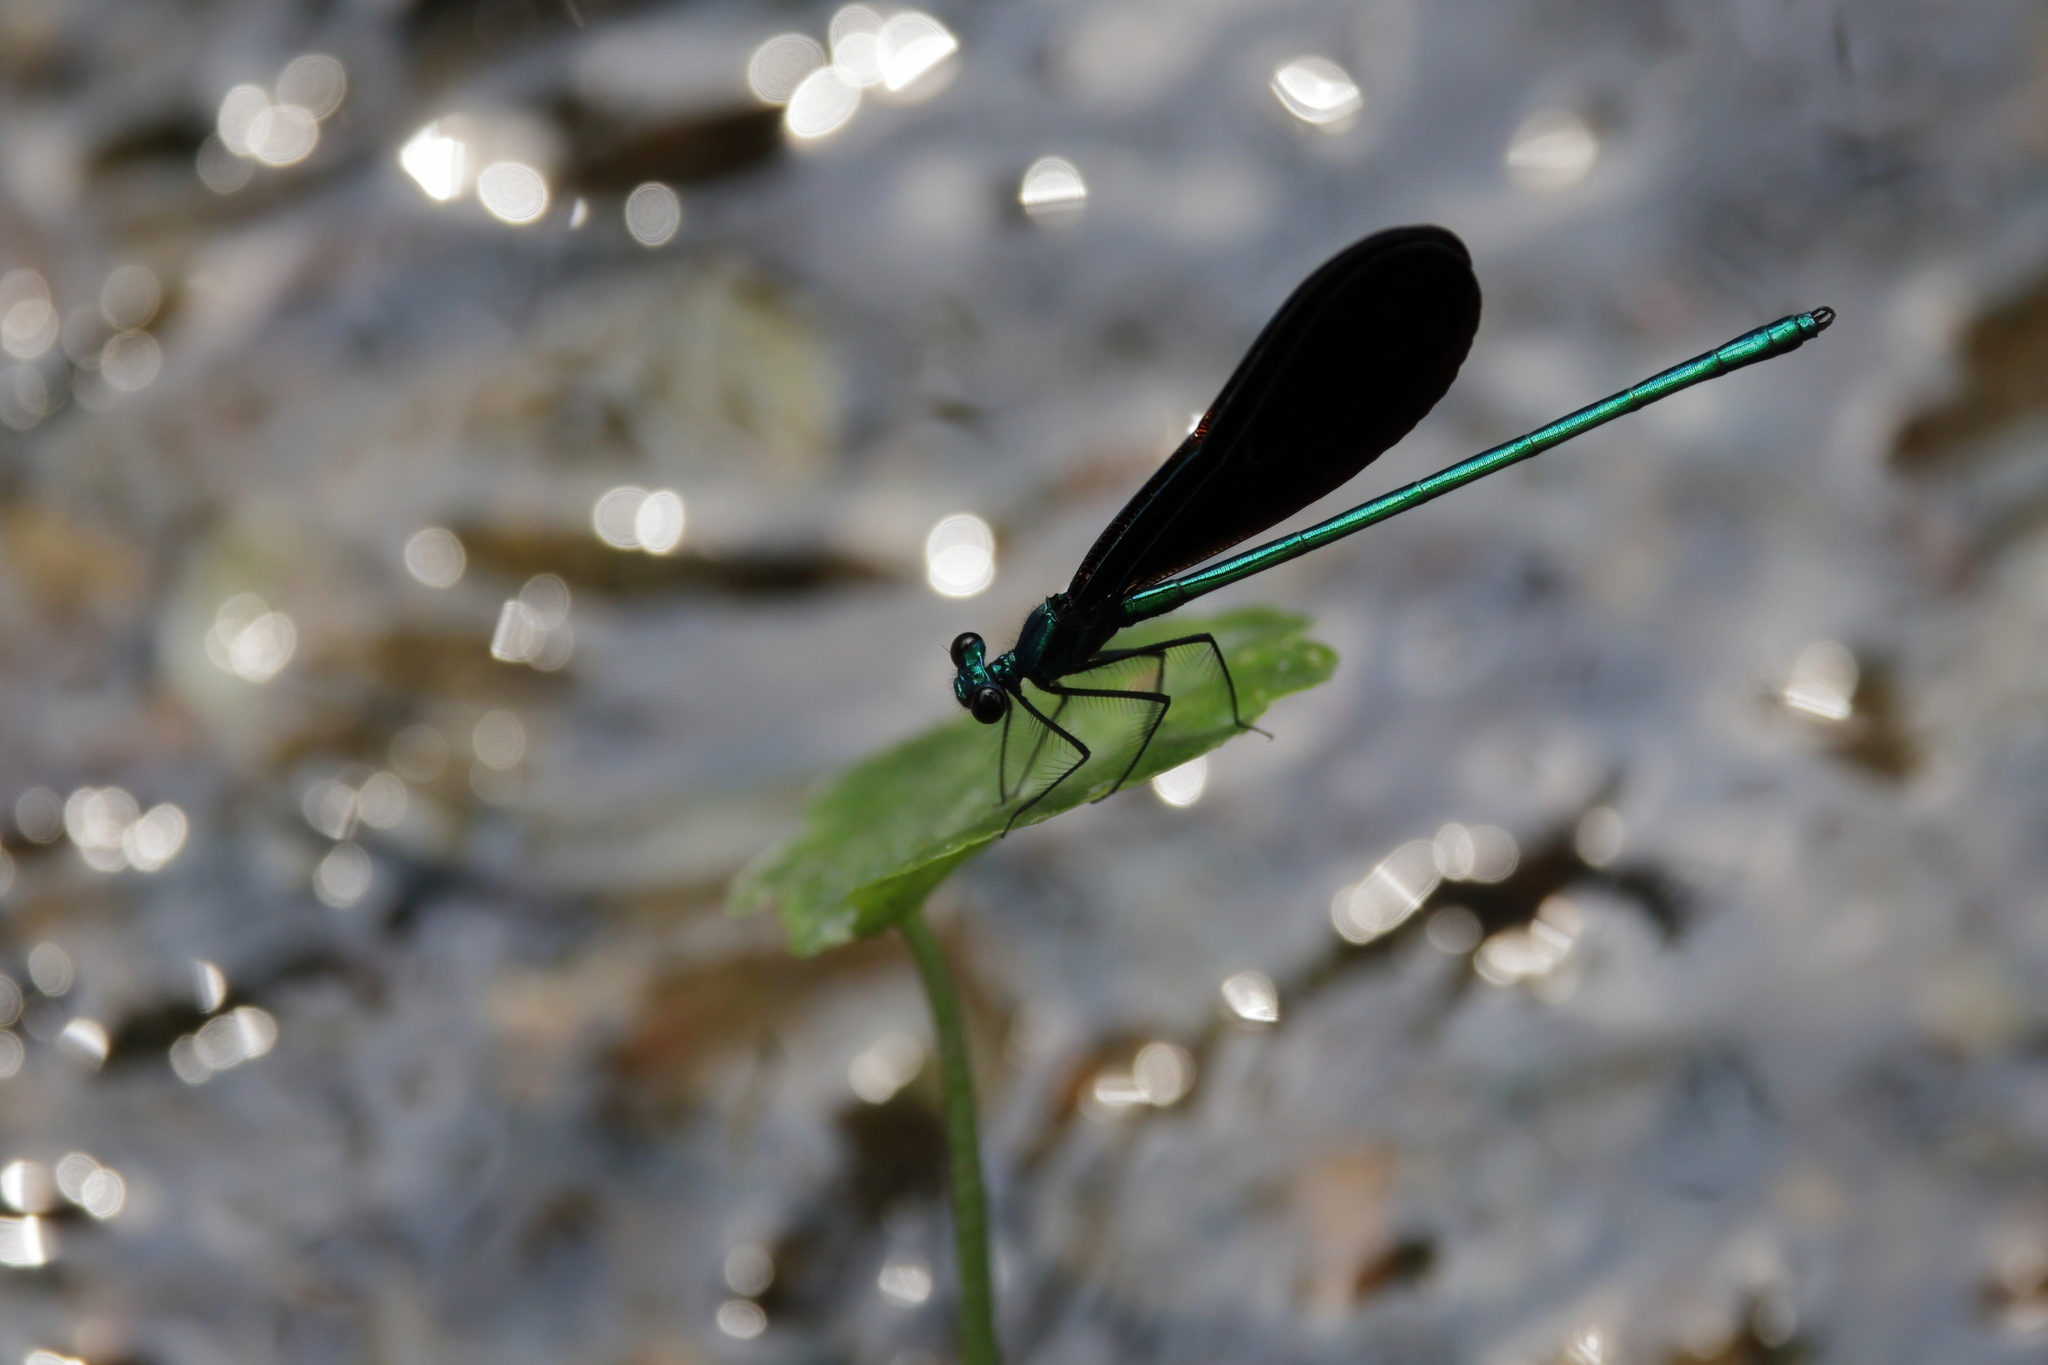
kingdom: Animalia
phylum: Arthropoda
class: Insecta
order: Odonata
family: Calopterygidae
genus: Calopteryx
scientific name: Calopteryx maculata
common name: Ebony jewelwing
